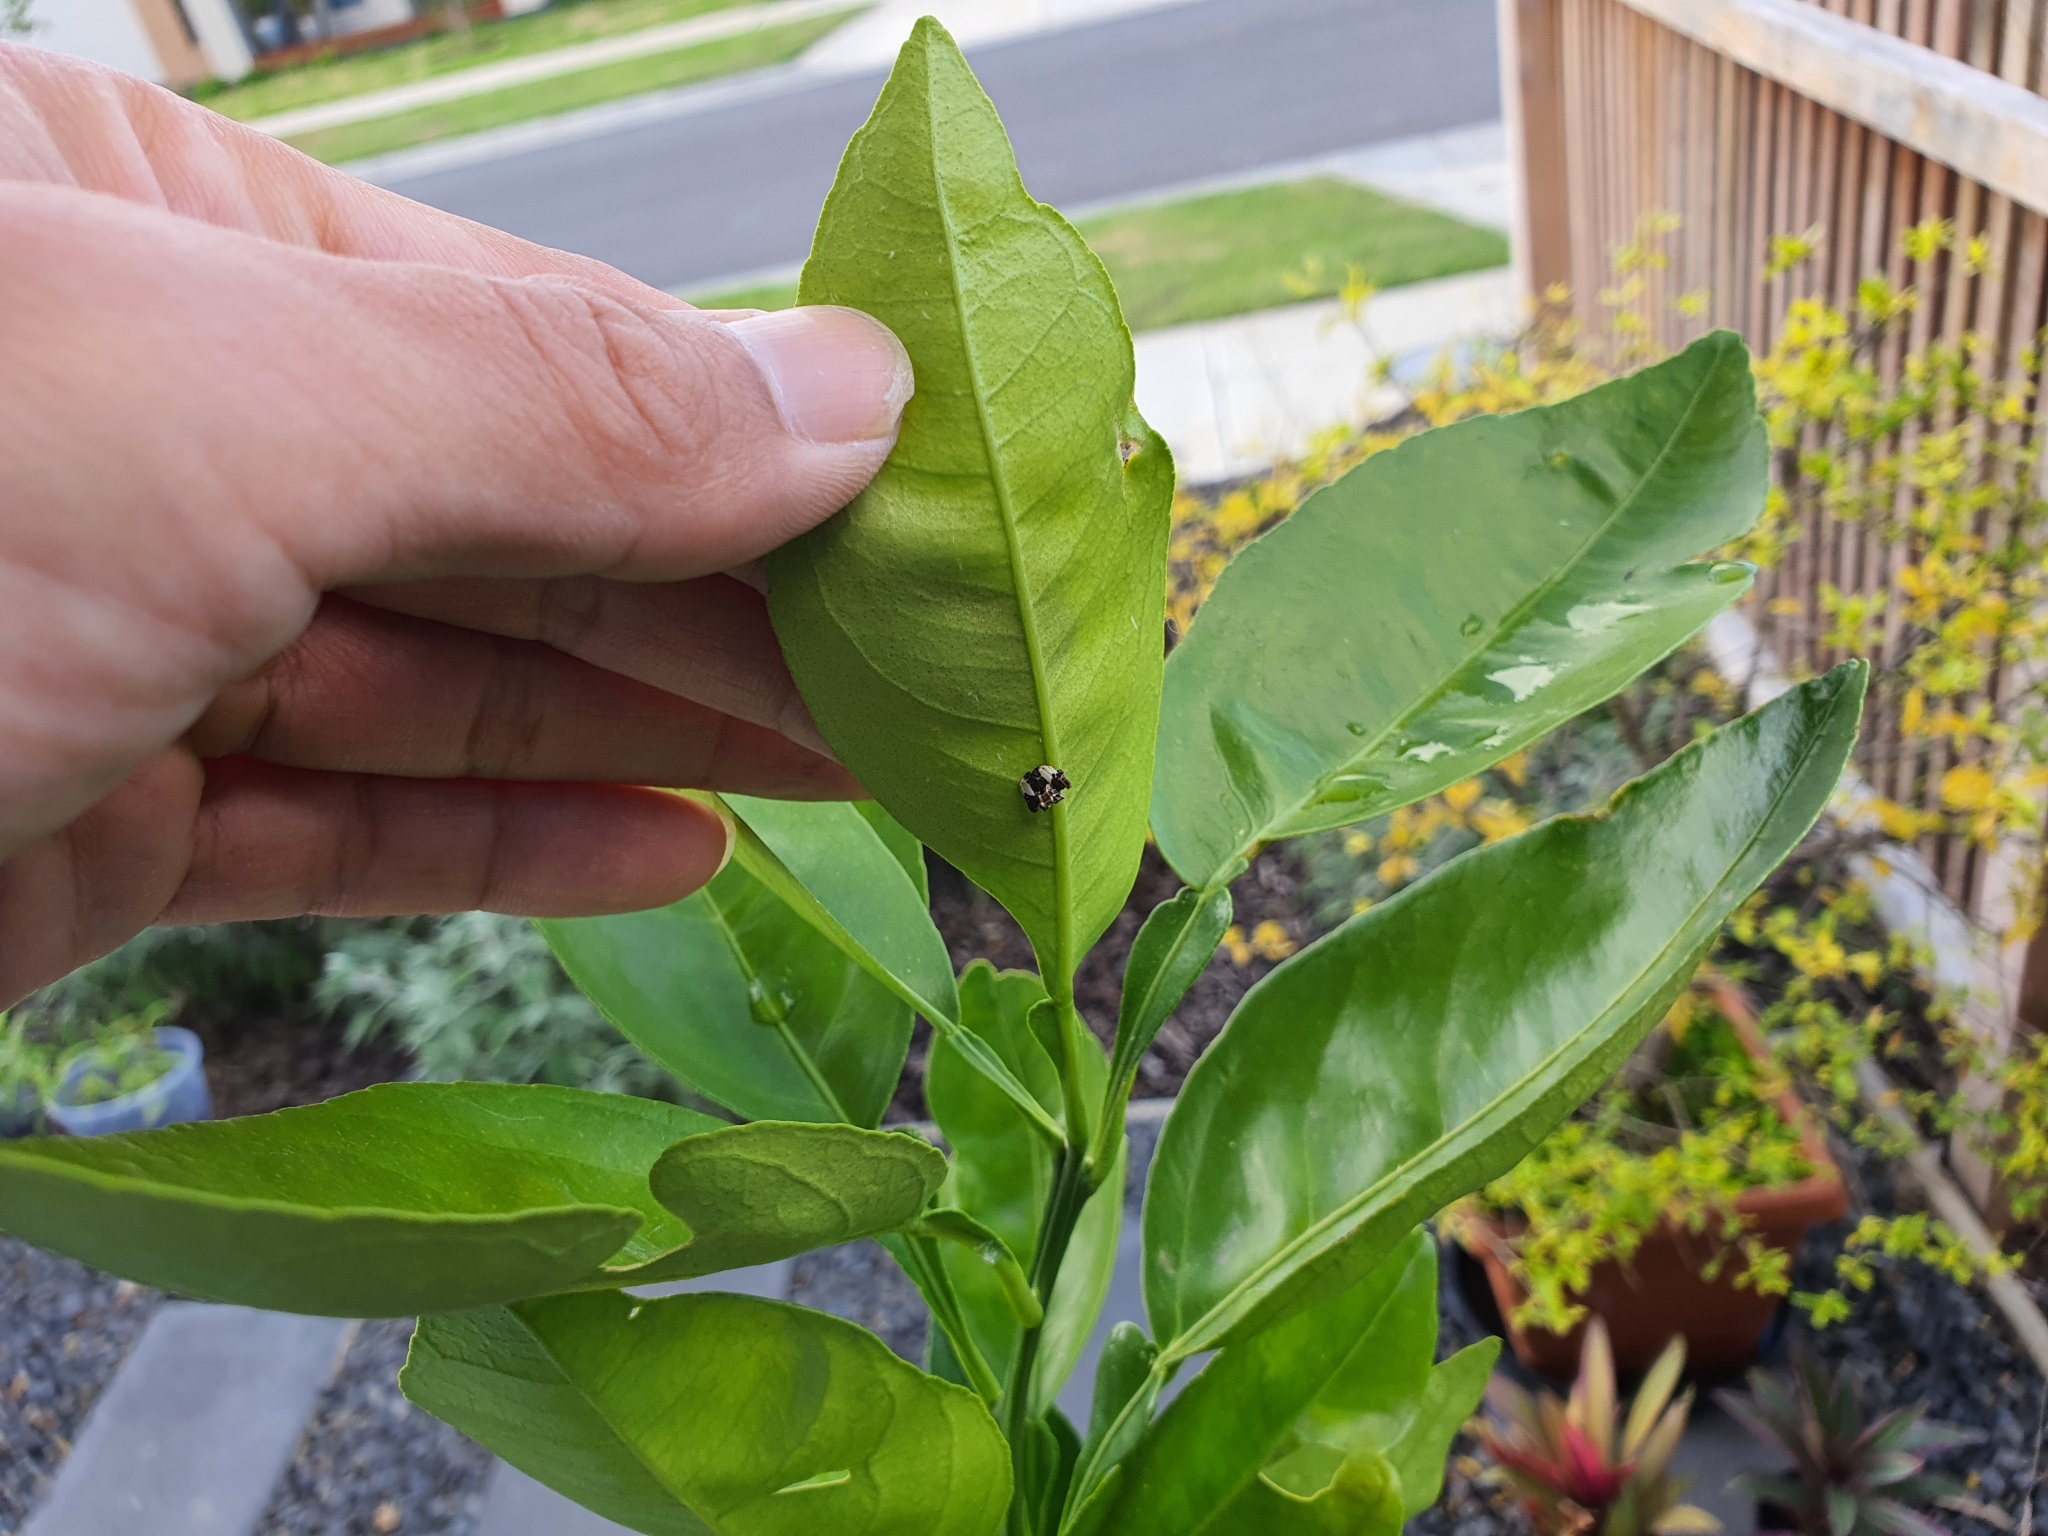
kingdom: Animalia
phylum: Arthropoda
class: Arachnida
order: Araneae
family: Araneidae
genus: Celaenia
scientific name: Celaenia excavata
